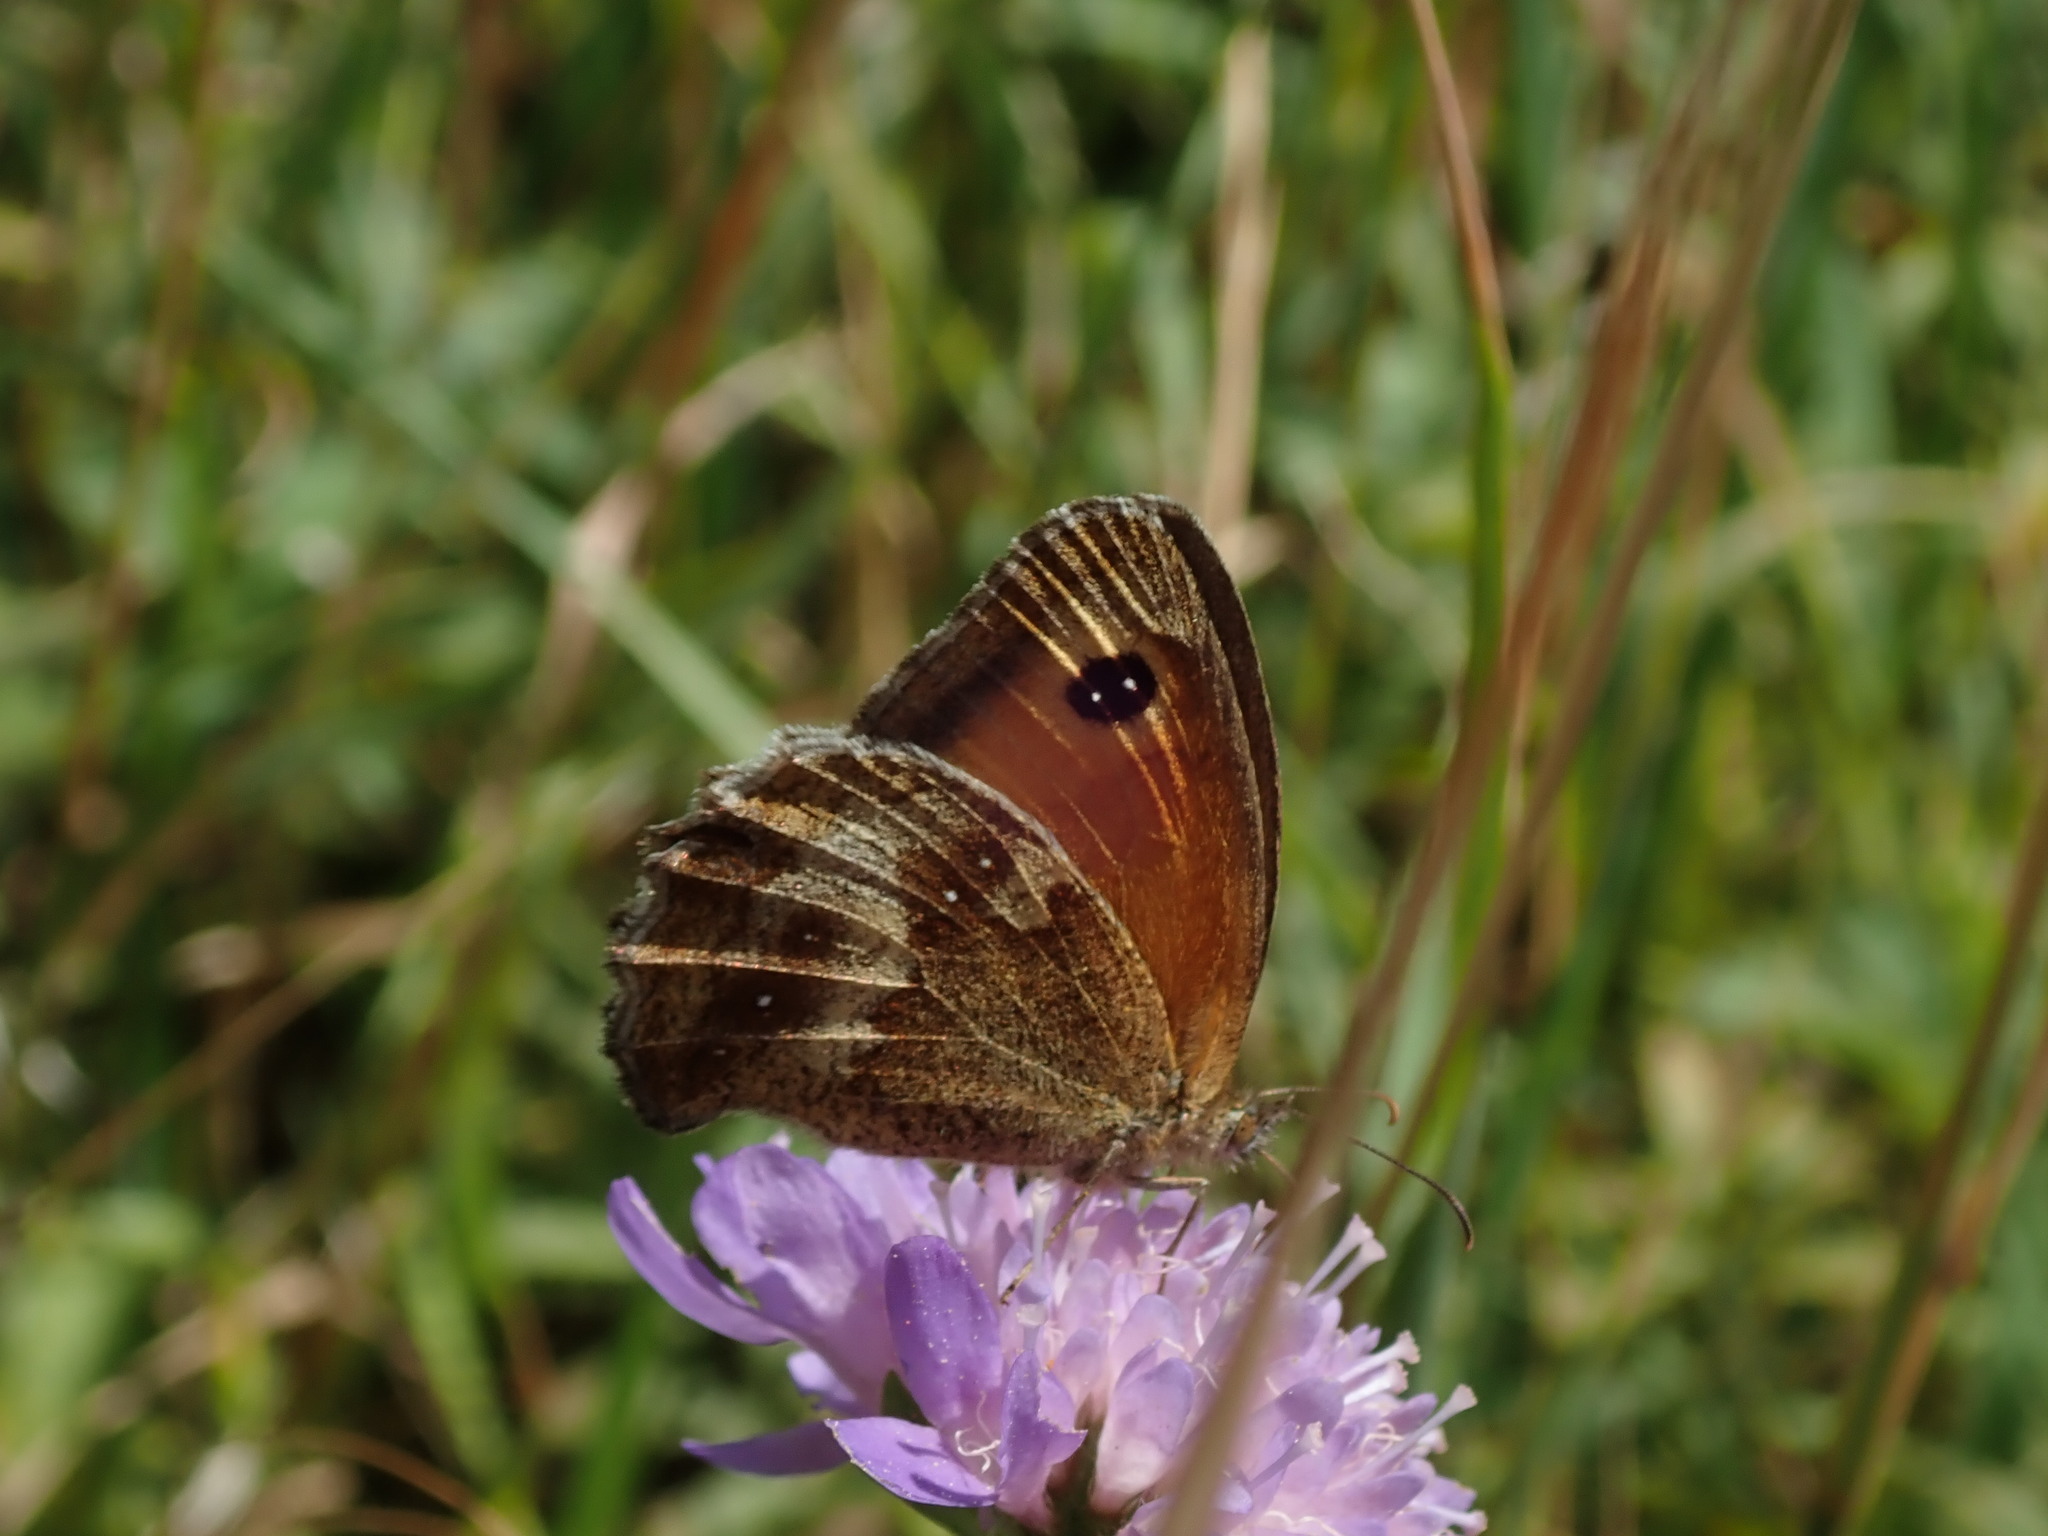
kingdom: Animalia
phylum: Arthropoda
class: Insecta
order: Lepidoptera
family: Nymphalidae
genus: Pyronia
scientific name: Pyronia tithonus
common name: Gatekeeper
